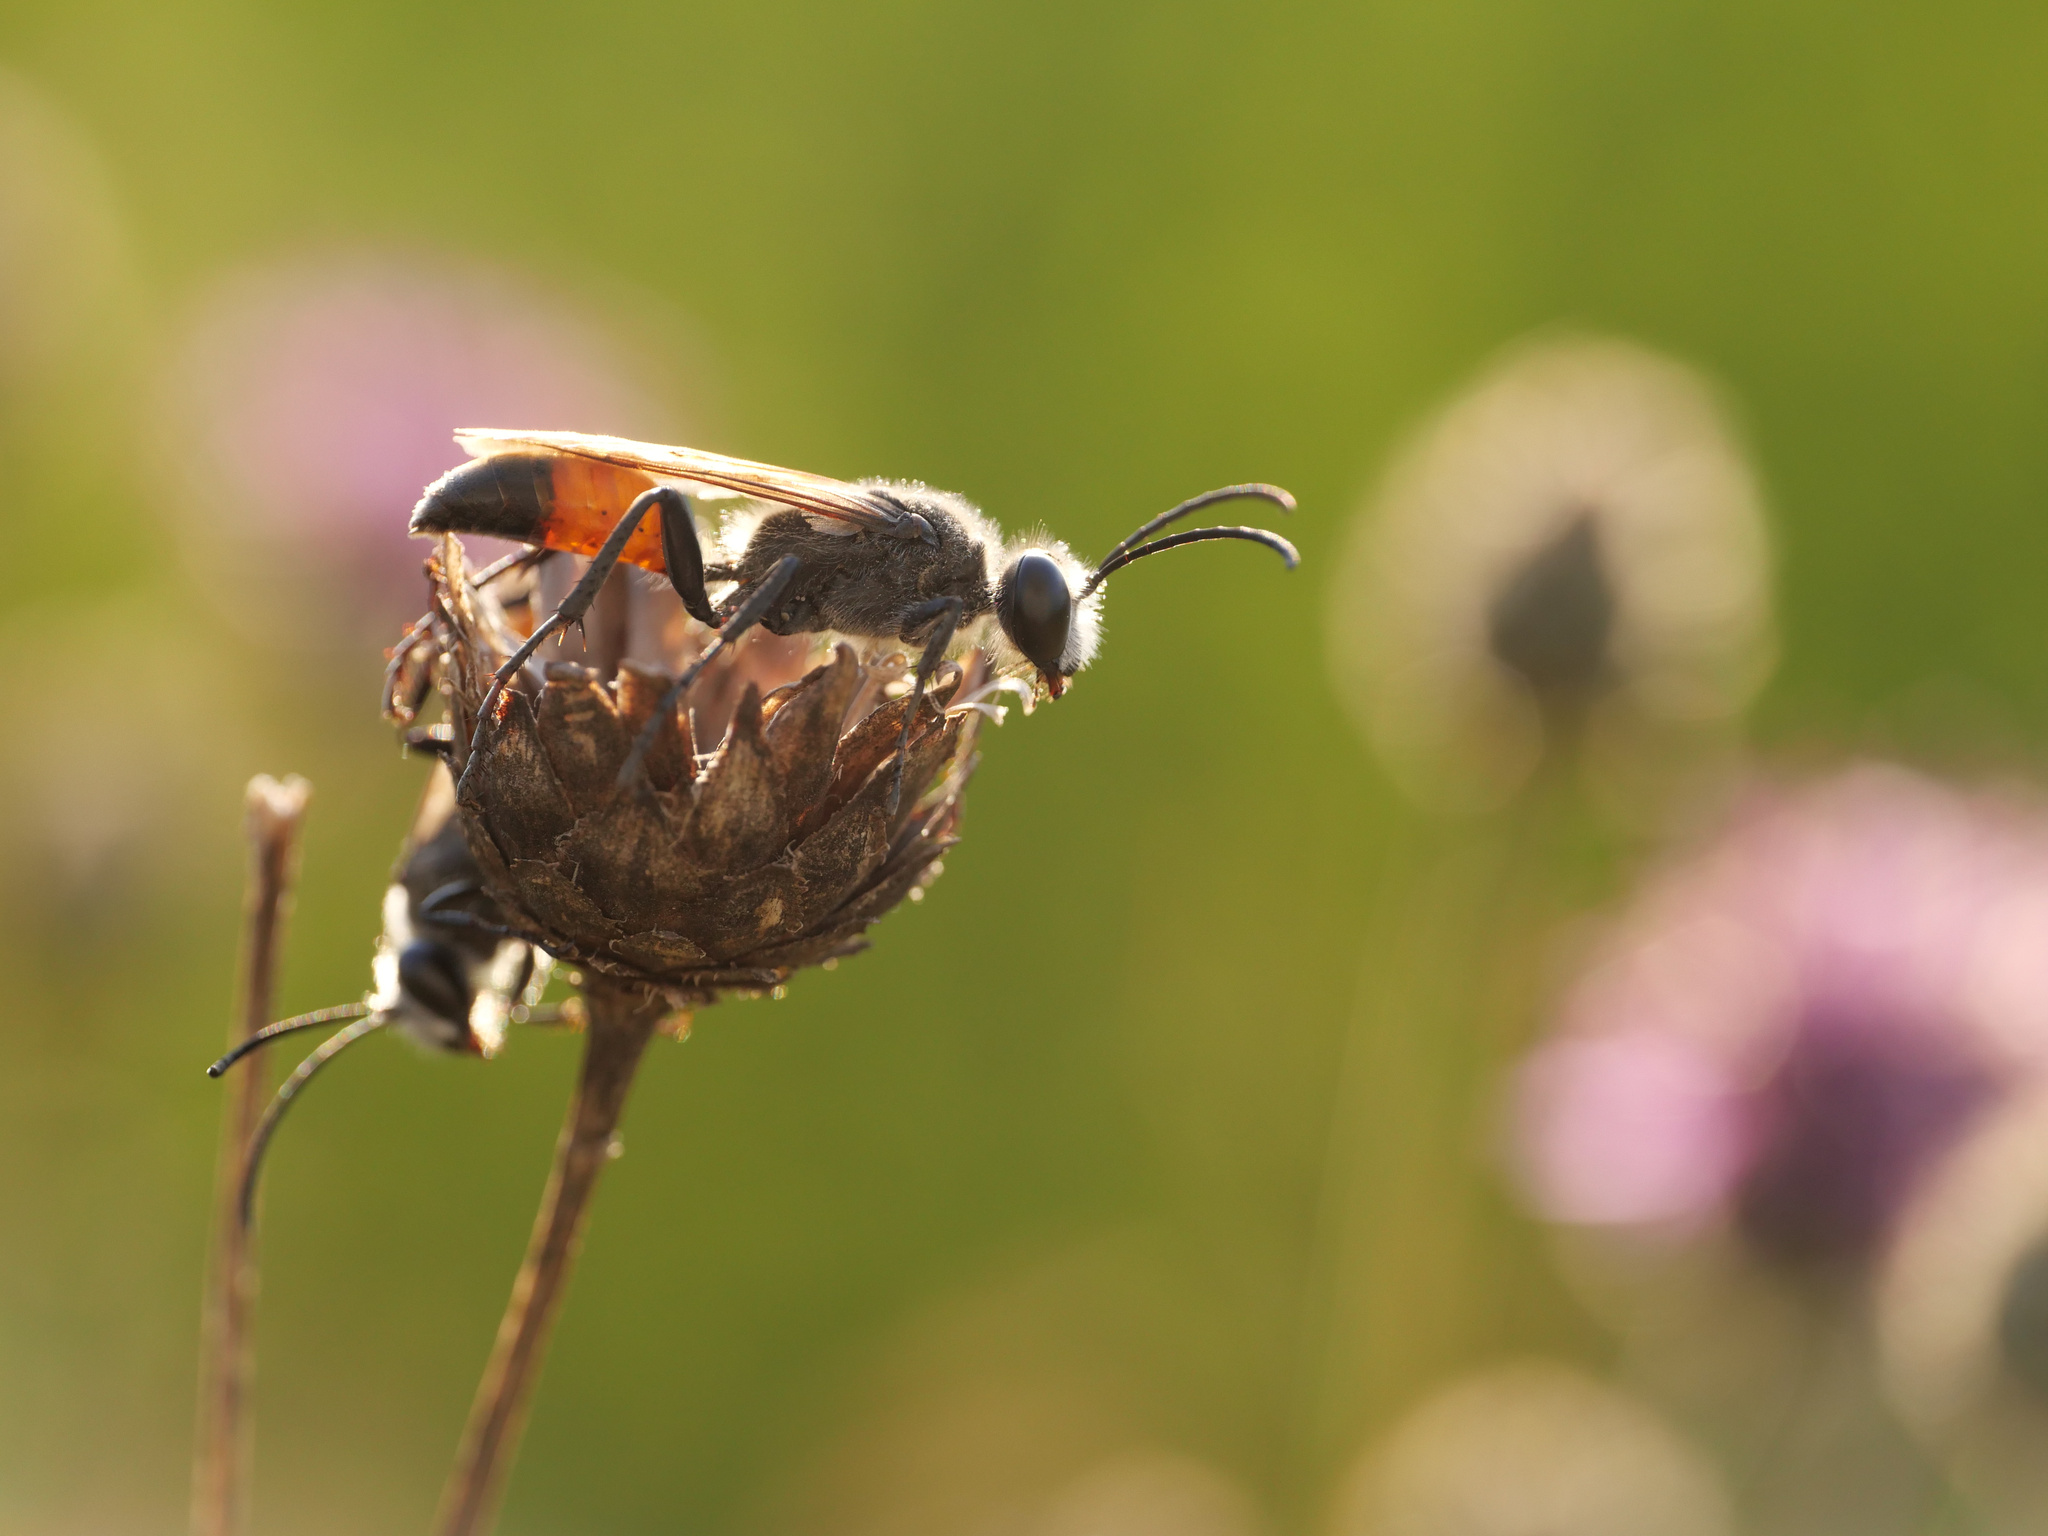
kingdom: Animalia
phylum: Arthropoda
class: Insecta
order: Hymenoptera
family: Sphecidae
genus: Sphex
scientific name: Sphex funerarius
